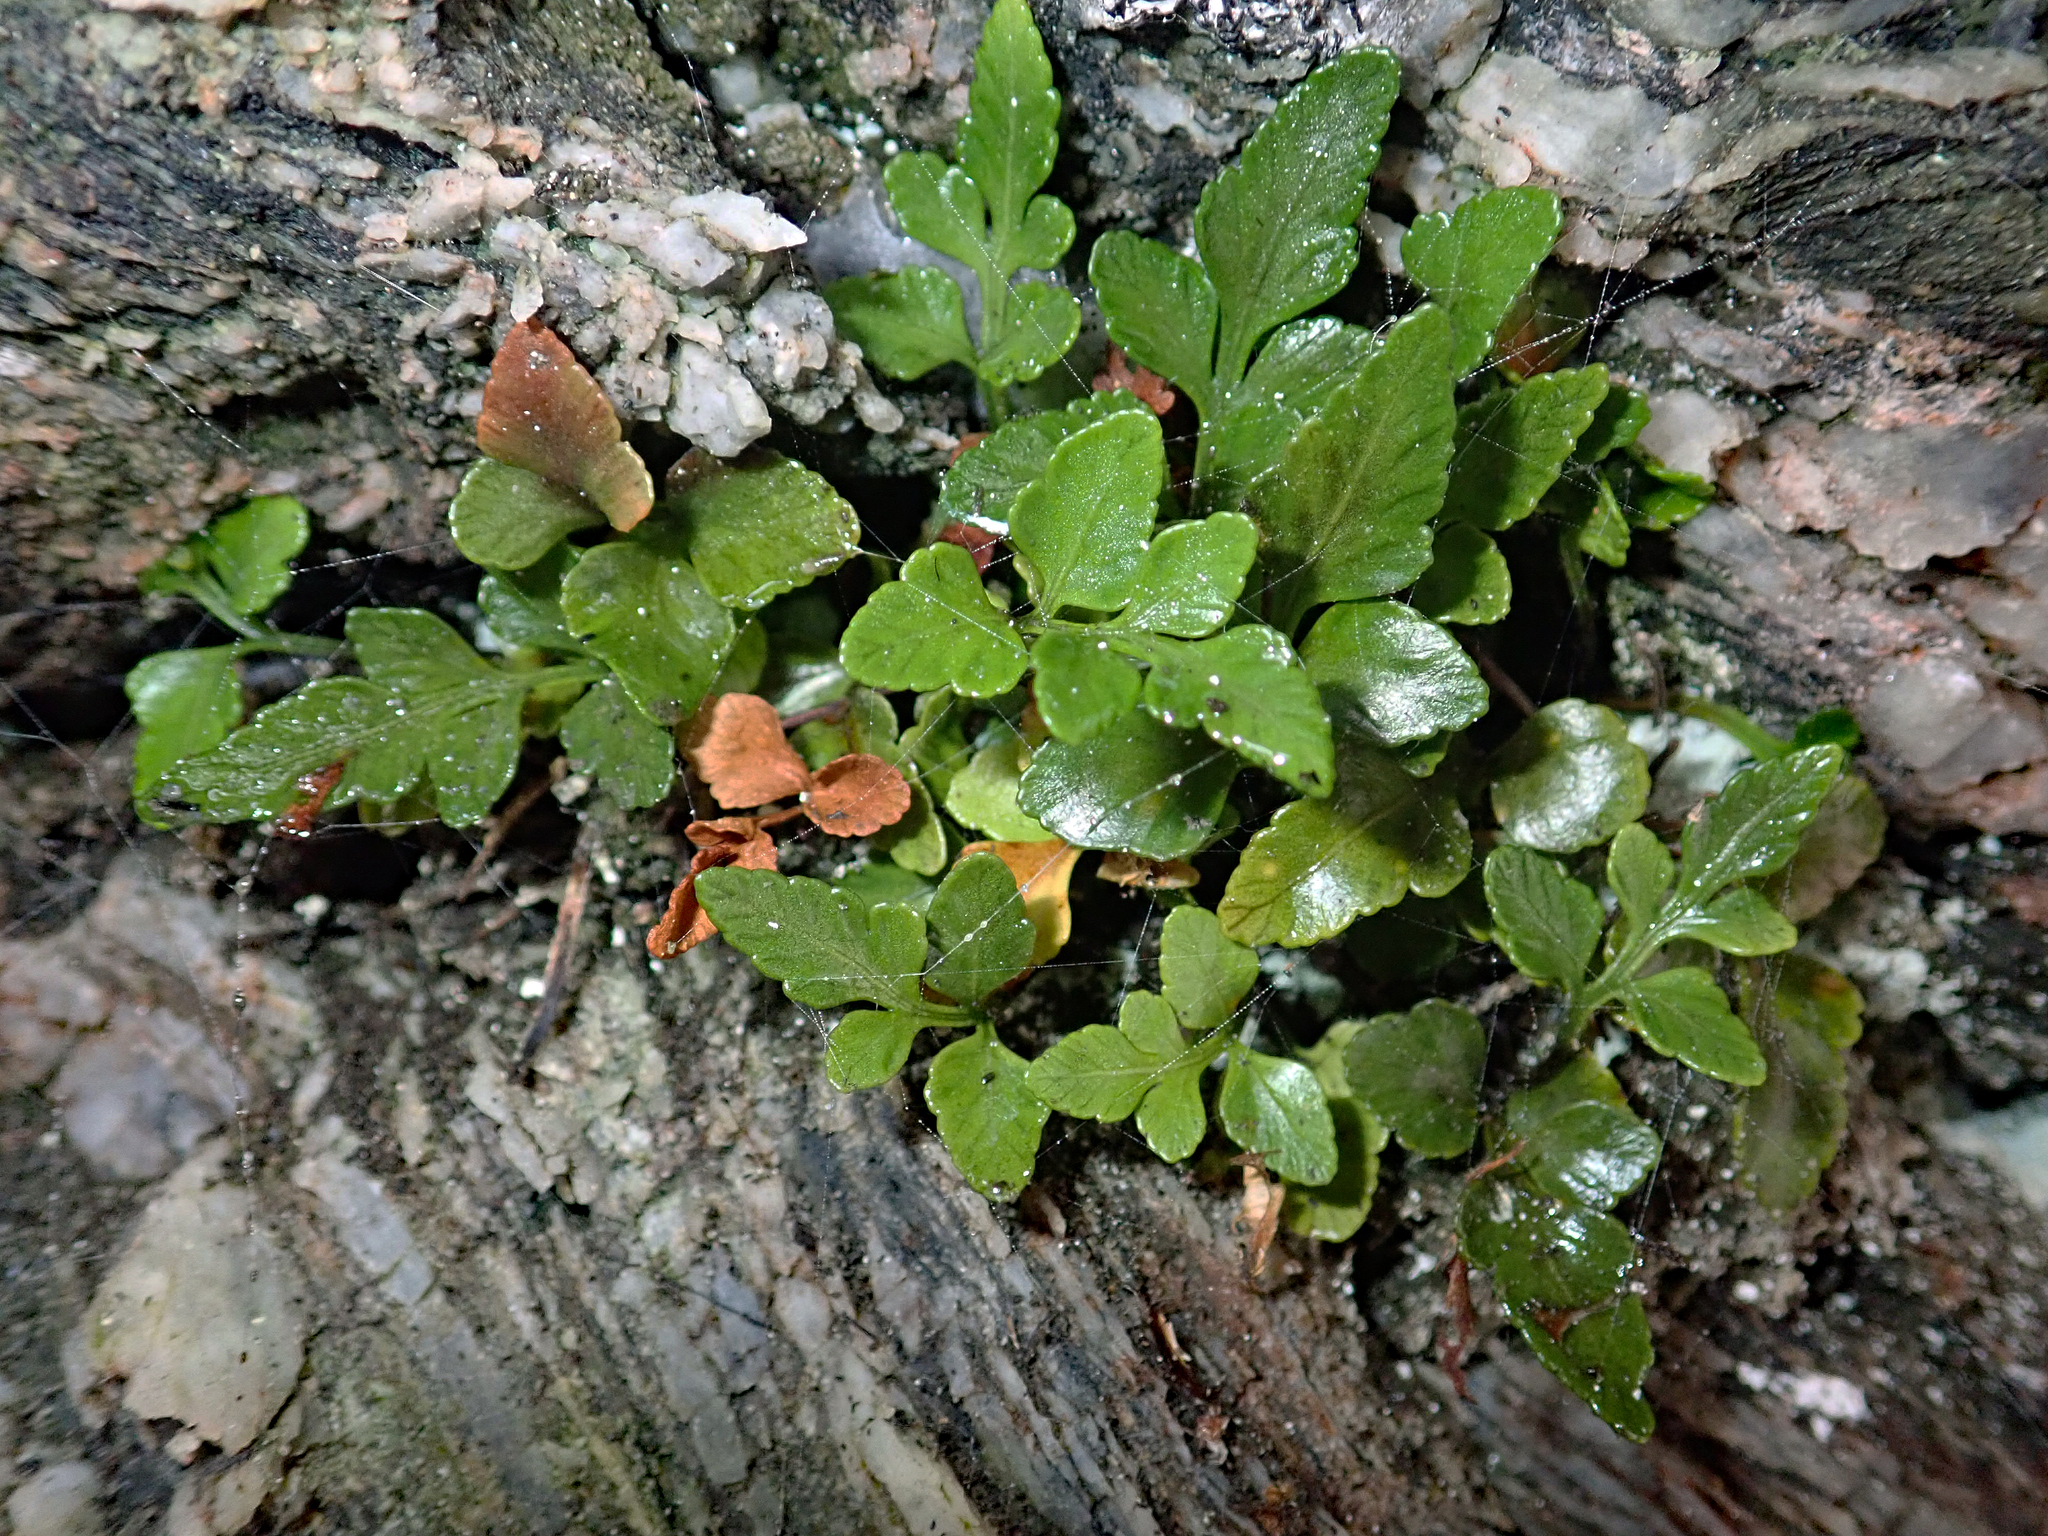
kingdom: Plantae
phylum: Tracheophyta
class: Polypodiopsida
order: Polypodiales
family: Aspleniaceae
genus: Asplenium
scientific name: Asplenium pauperequitum
